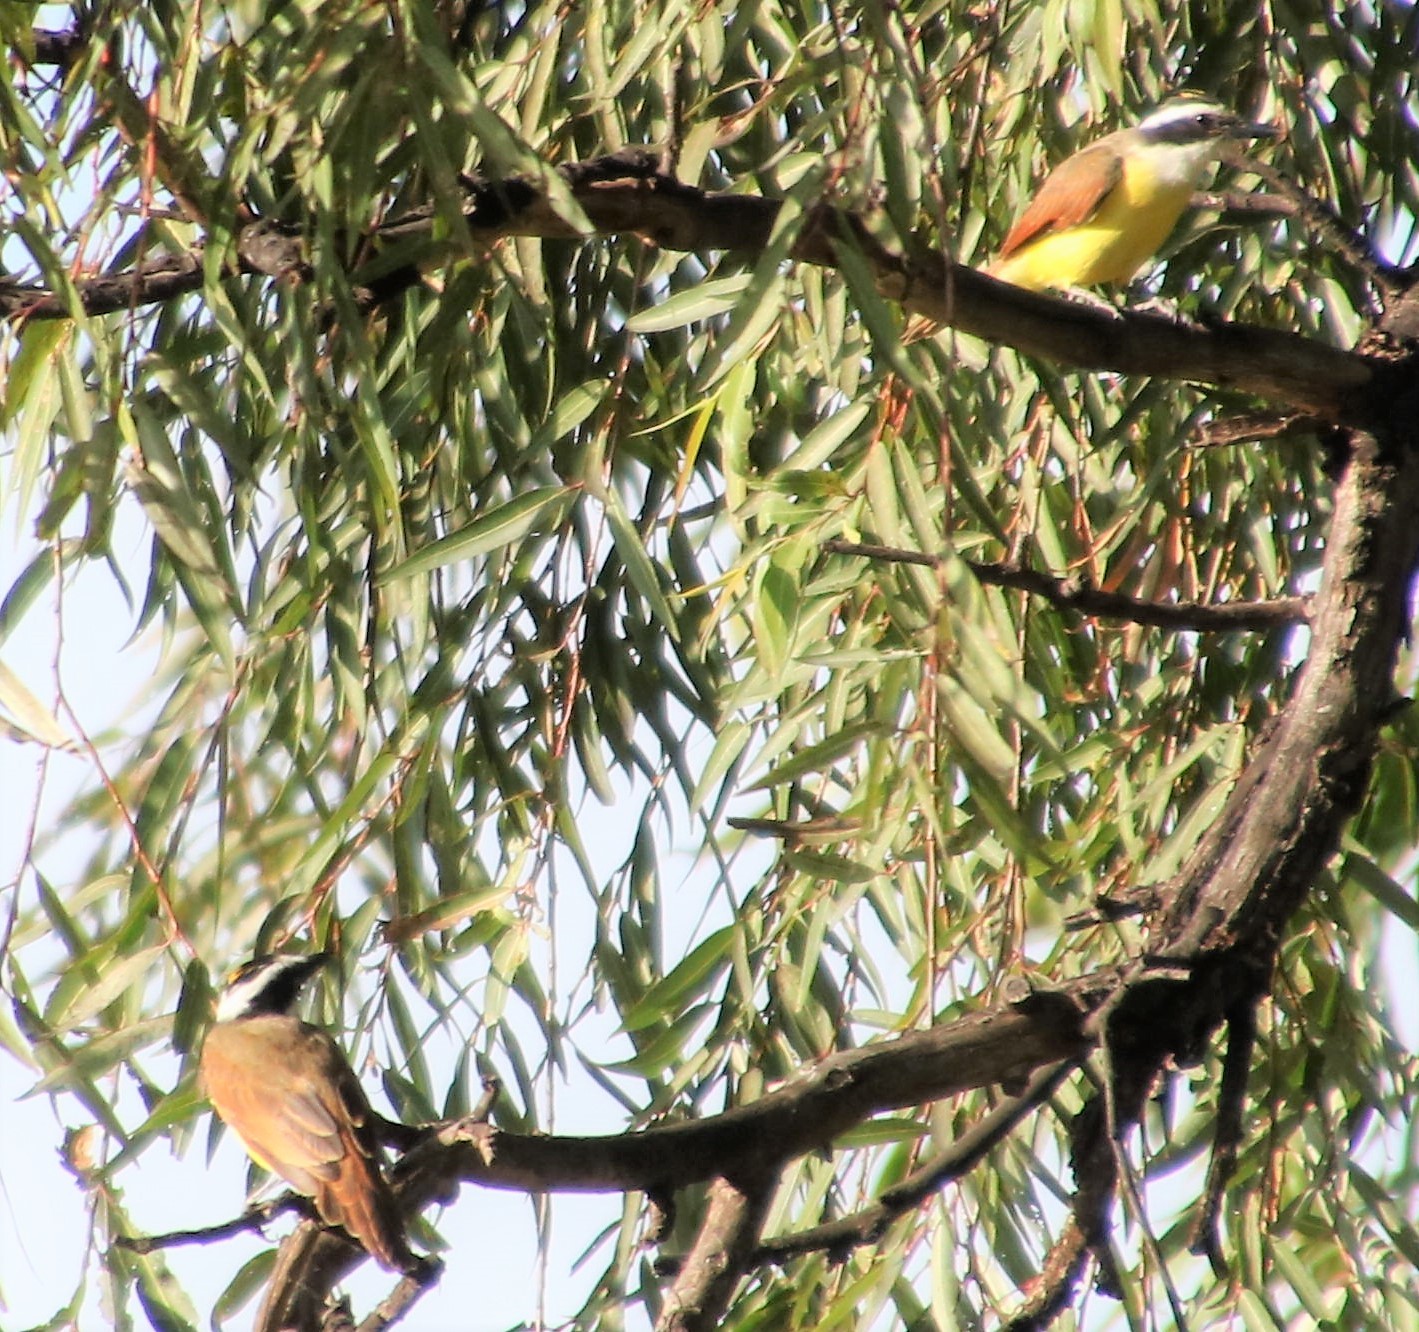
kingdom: Animalia
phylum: Chordata
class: Aves
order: Passeriformes
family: Tyrannidae
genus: Pitangus
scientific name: Pitangus sulphuratus
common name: Great kiskadee
